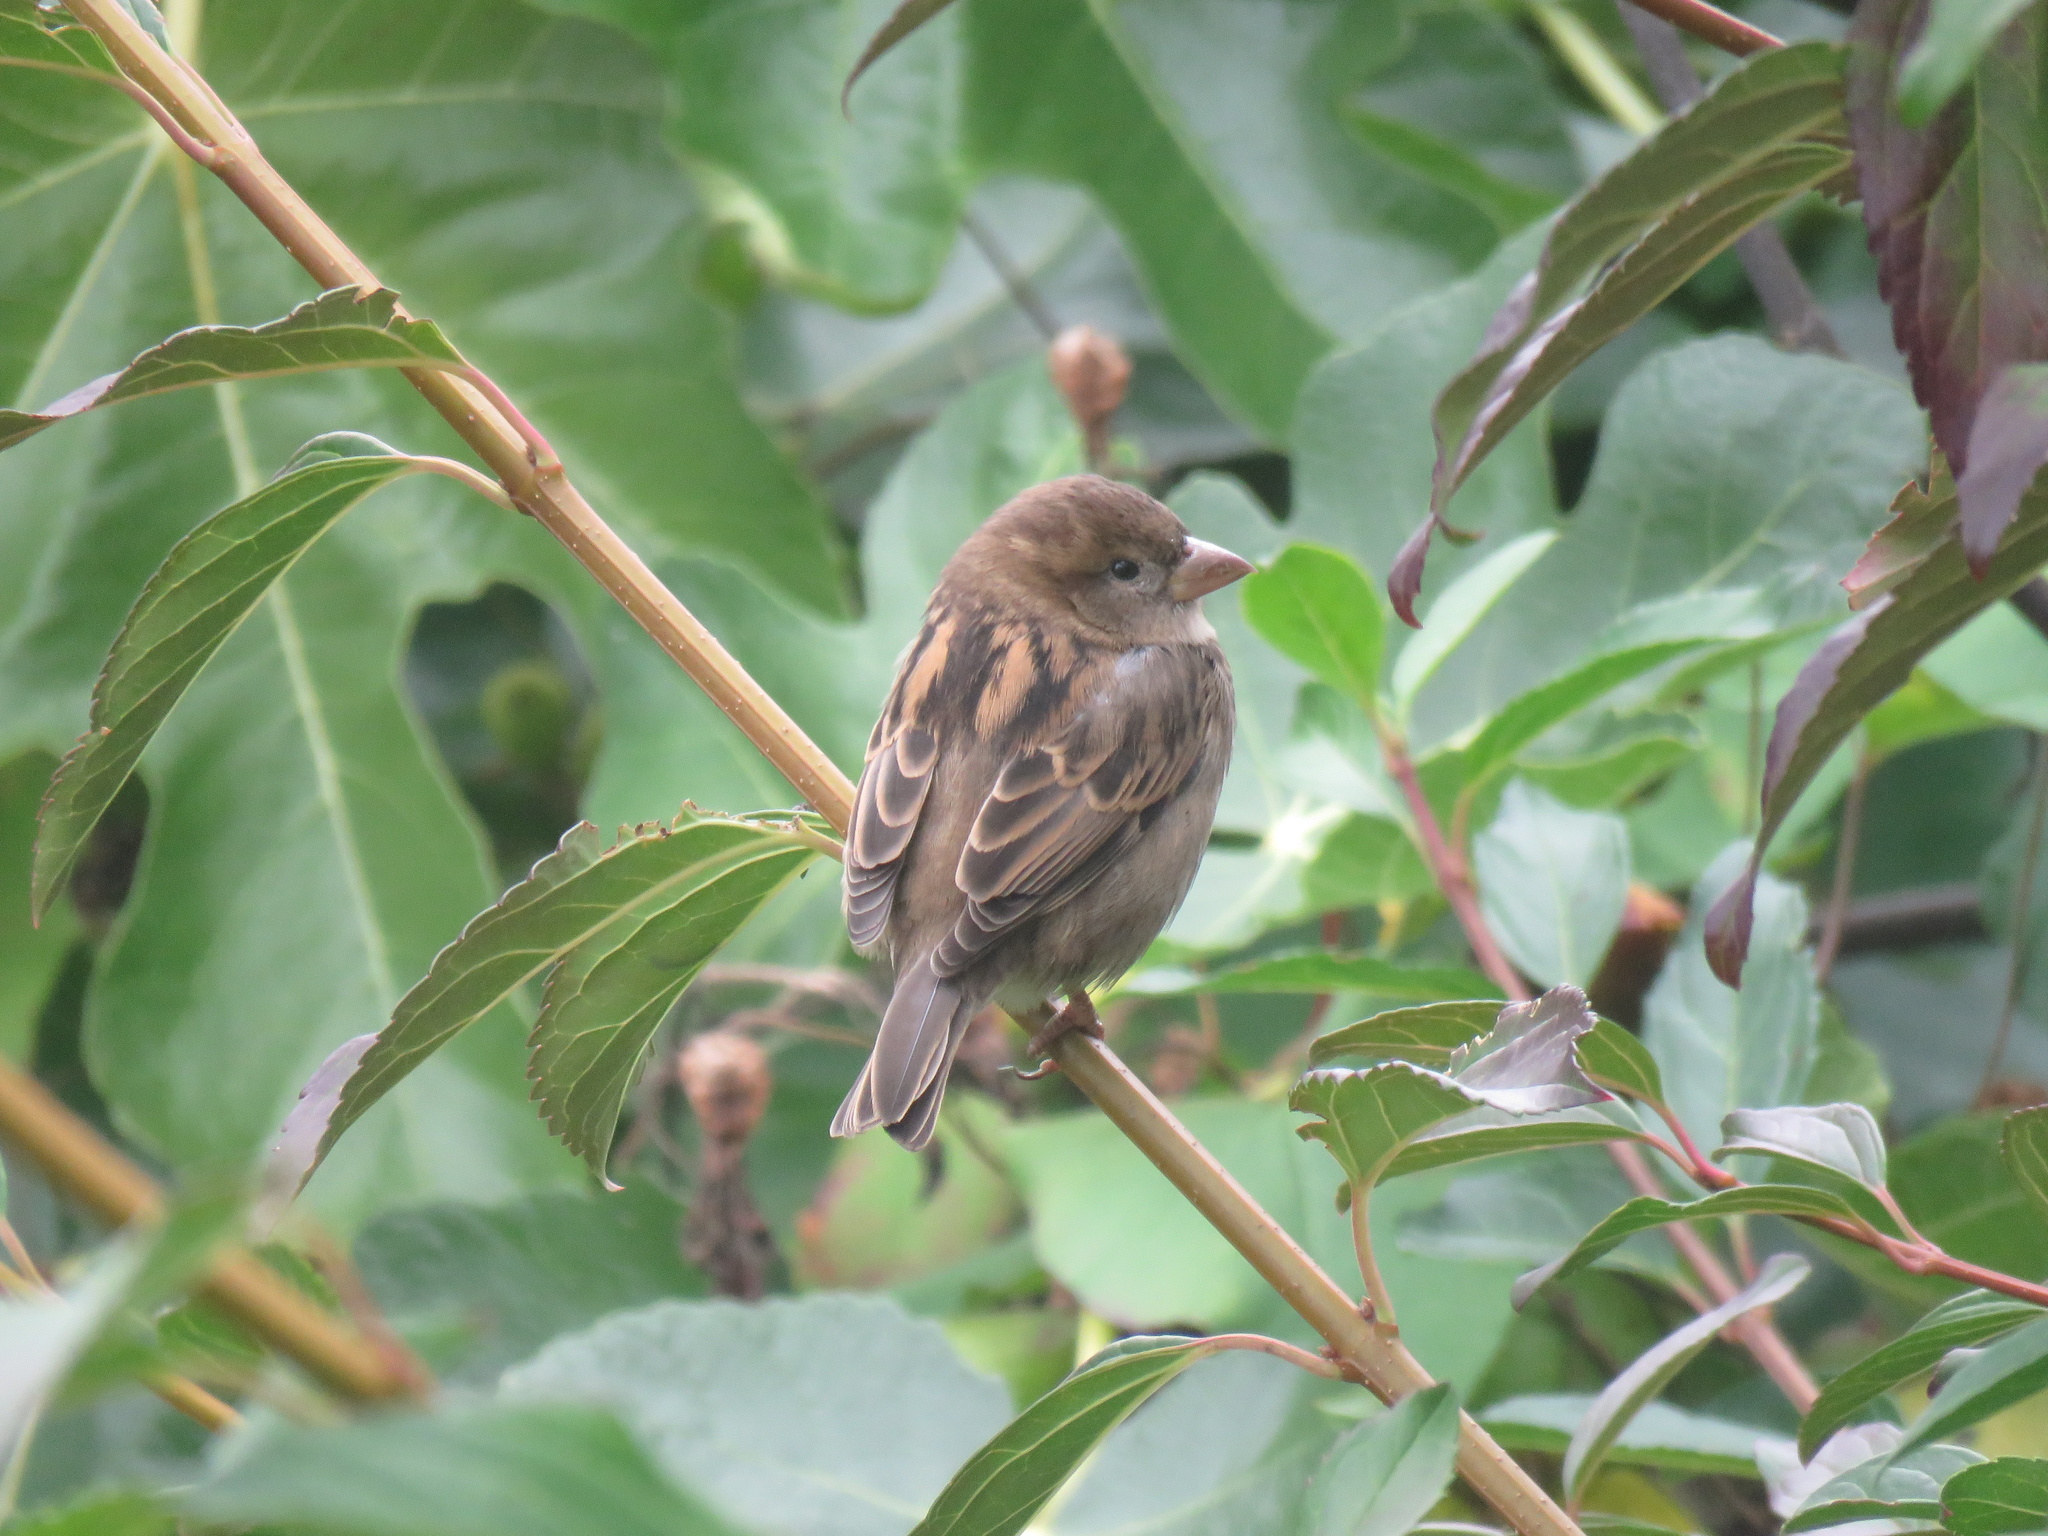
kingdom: Animalia
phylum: Chordata
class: Aves
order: Passeriformes
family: Passeridae
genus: Passer
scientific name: Passer domesticus
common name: House sparrow
